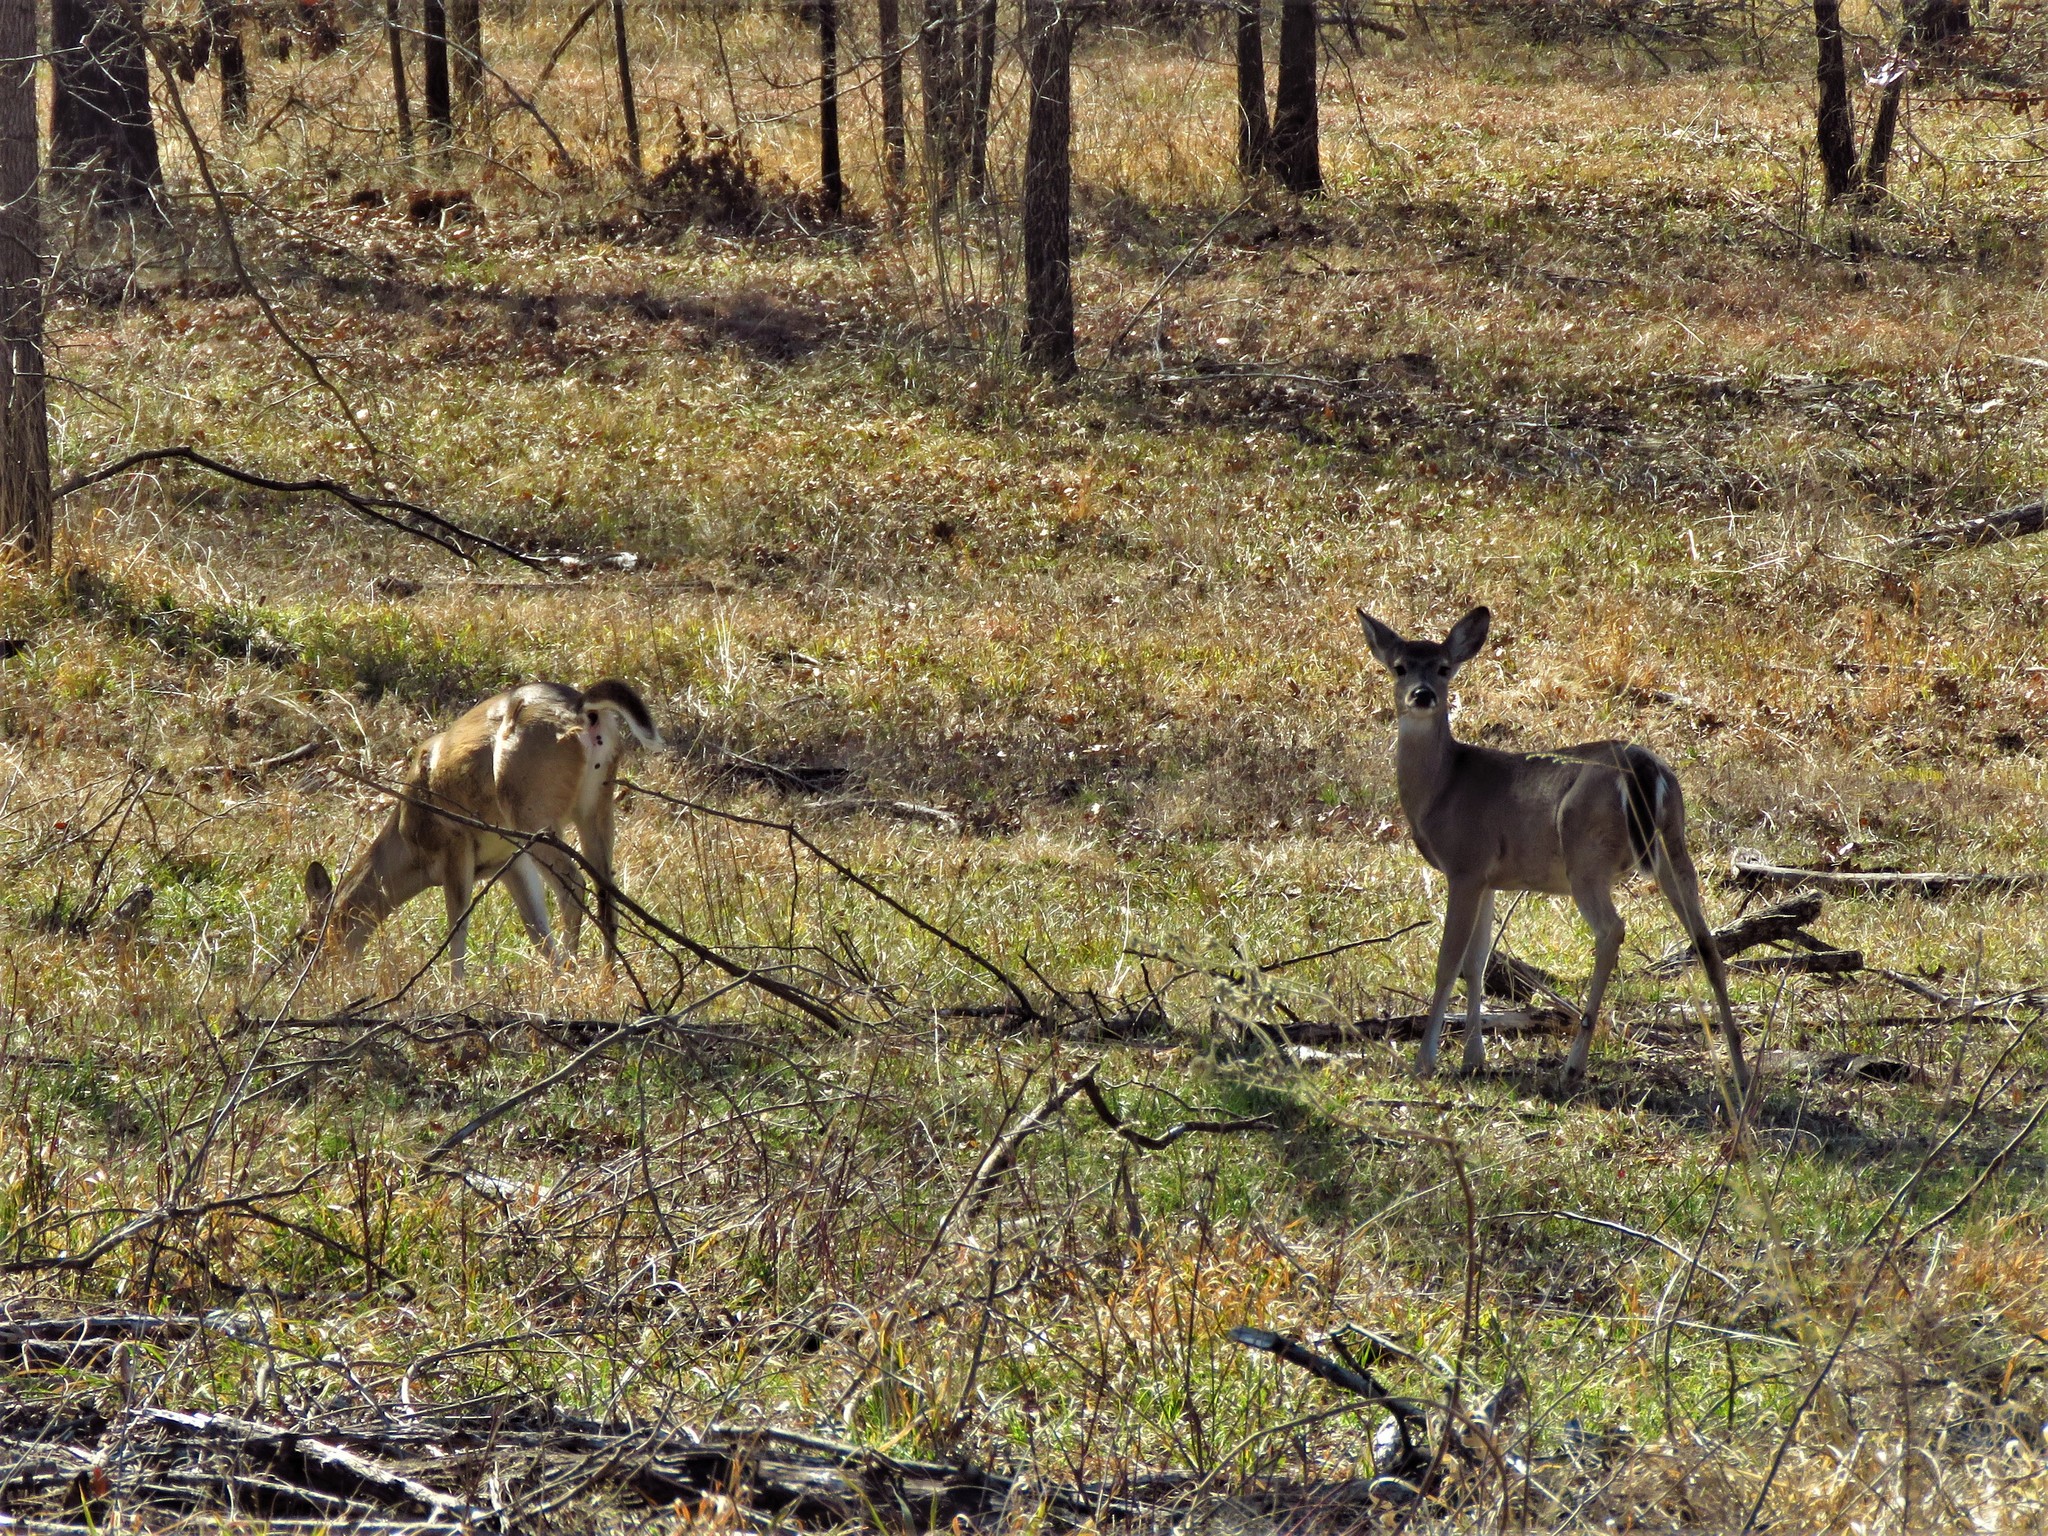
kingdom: Animalia
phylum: Chordata
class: Mammalia
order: Artiodactyla
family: Cervidae
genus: Odocoileus
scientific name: Odocoileus virginianus
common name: White-tailed deer
